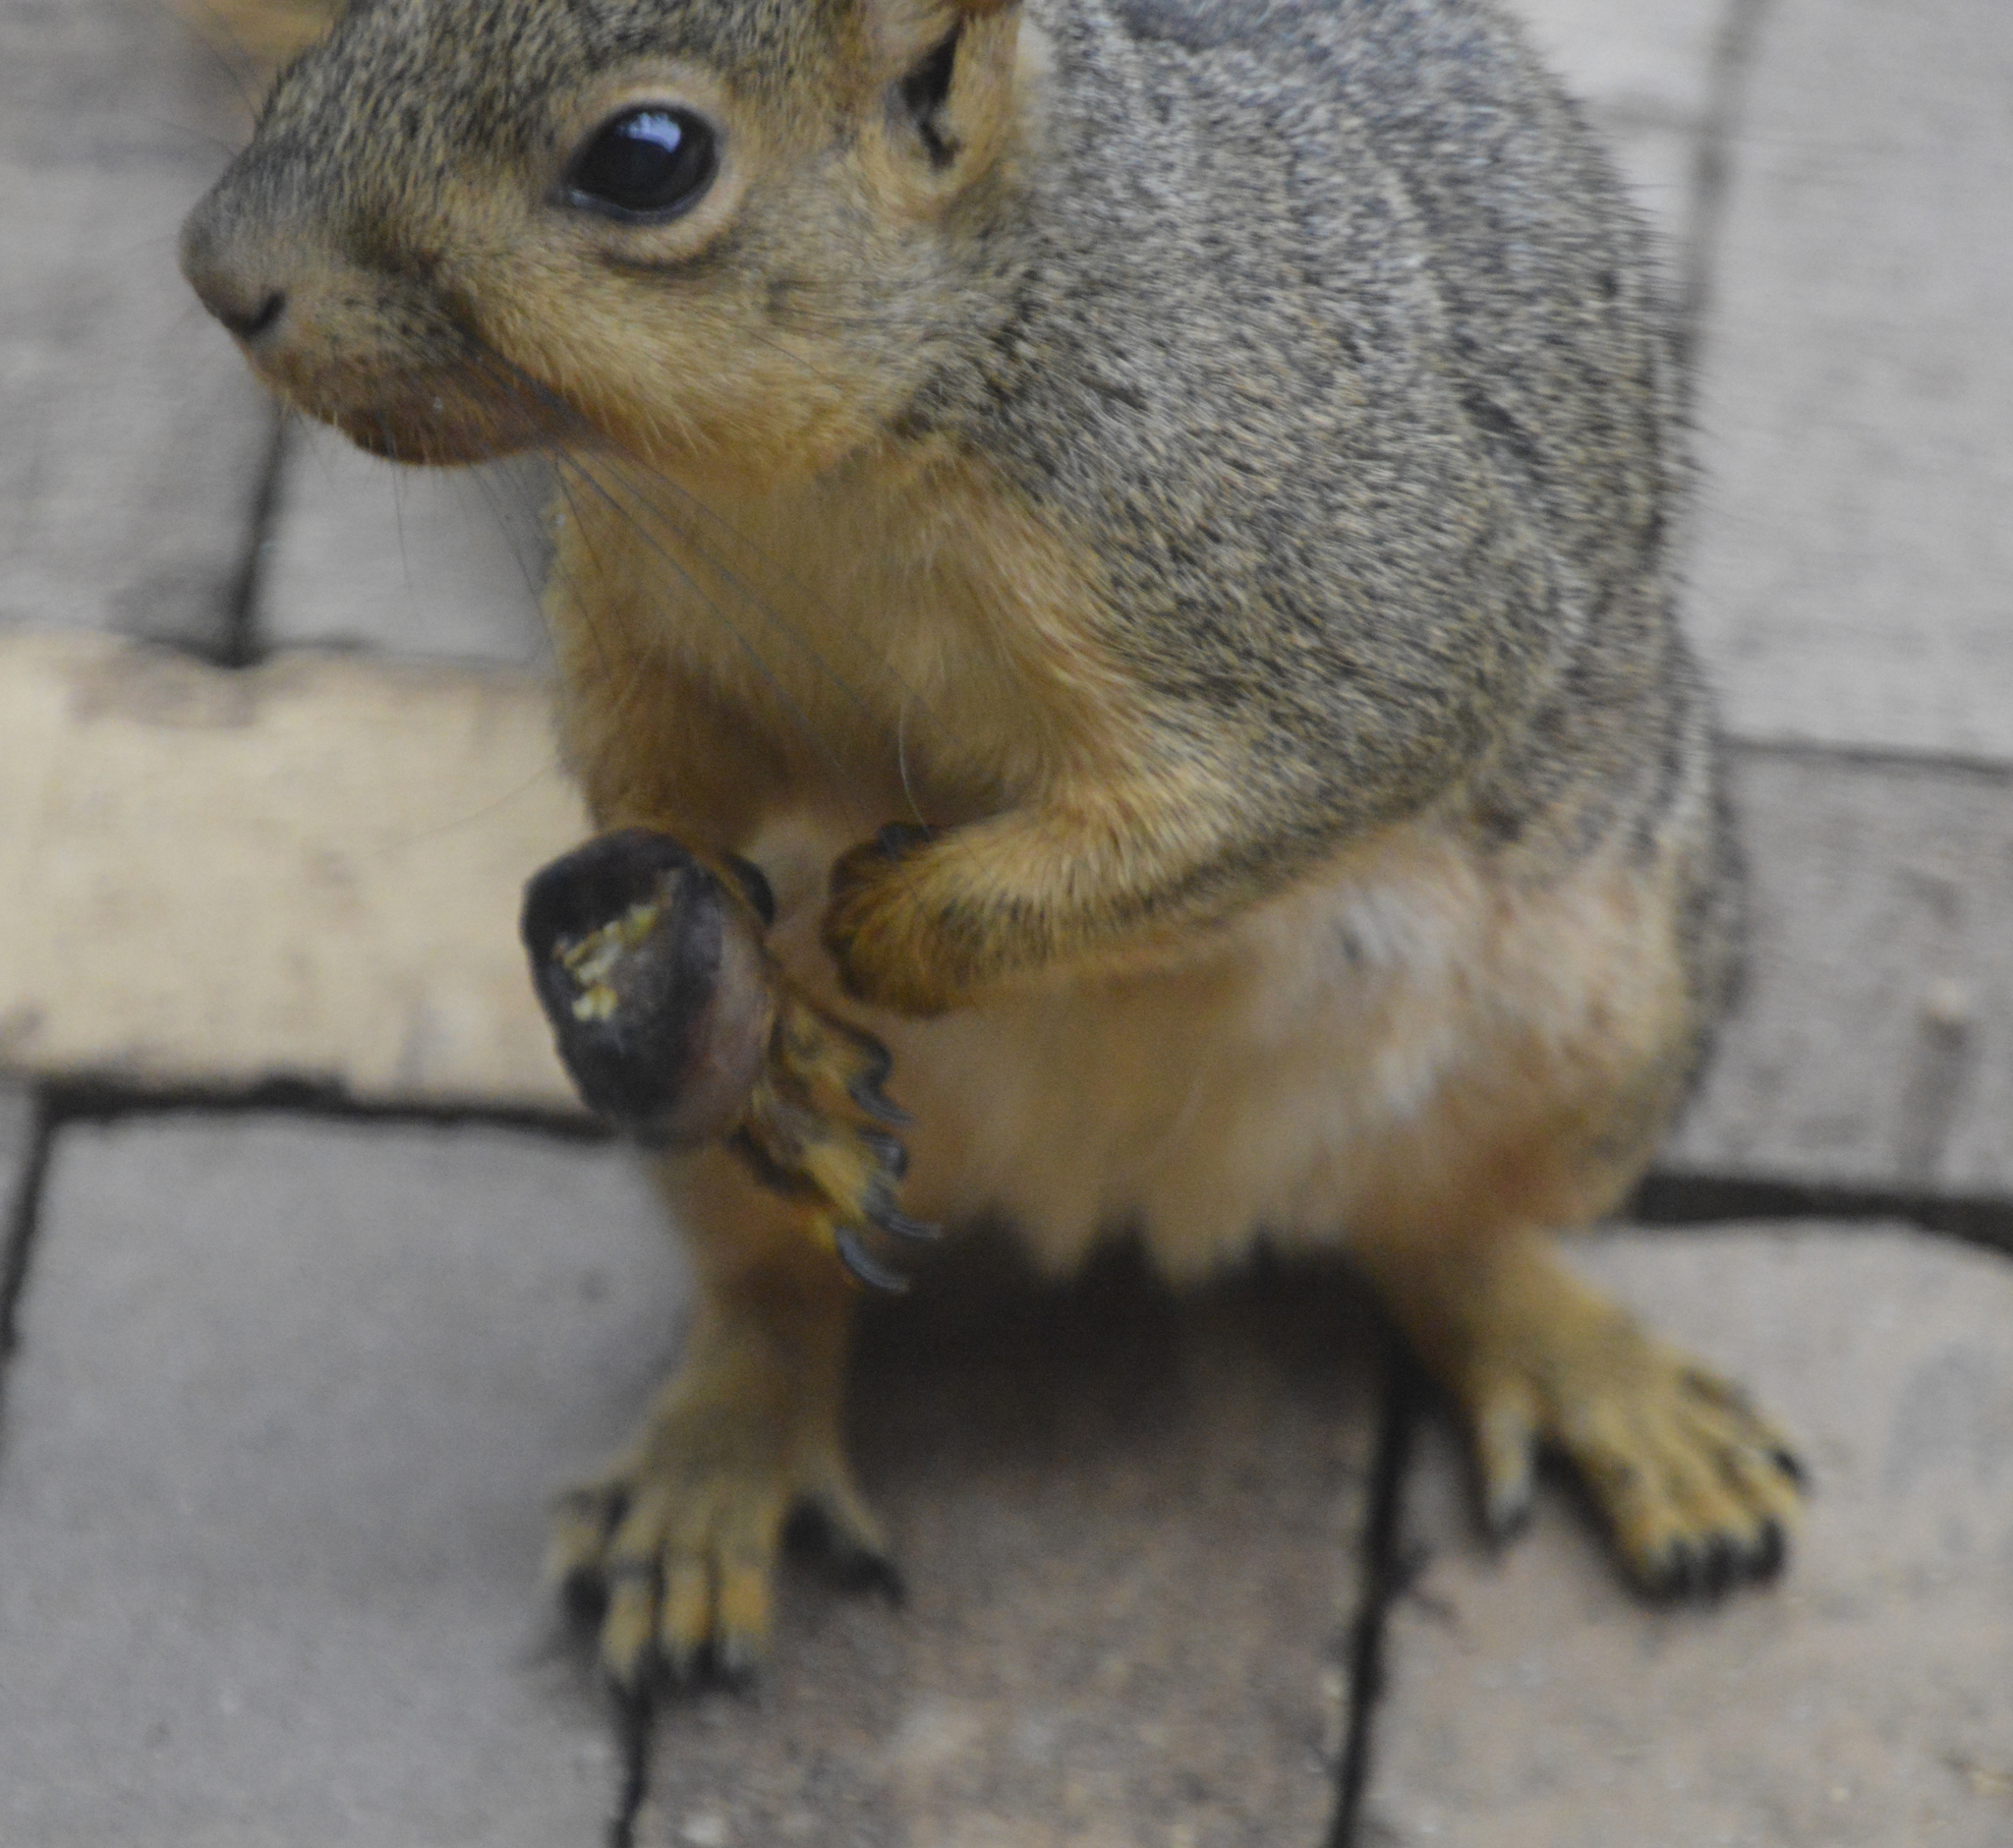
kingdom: Animalia
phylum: Chordata
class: Mammalia
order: Rodentia
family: Sciuridae
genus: Sciurus
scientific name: Sciurus niger
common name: Fox squirrel
